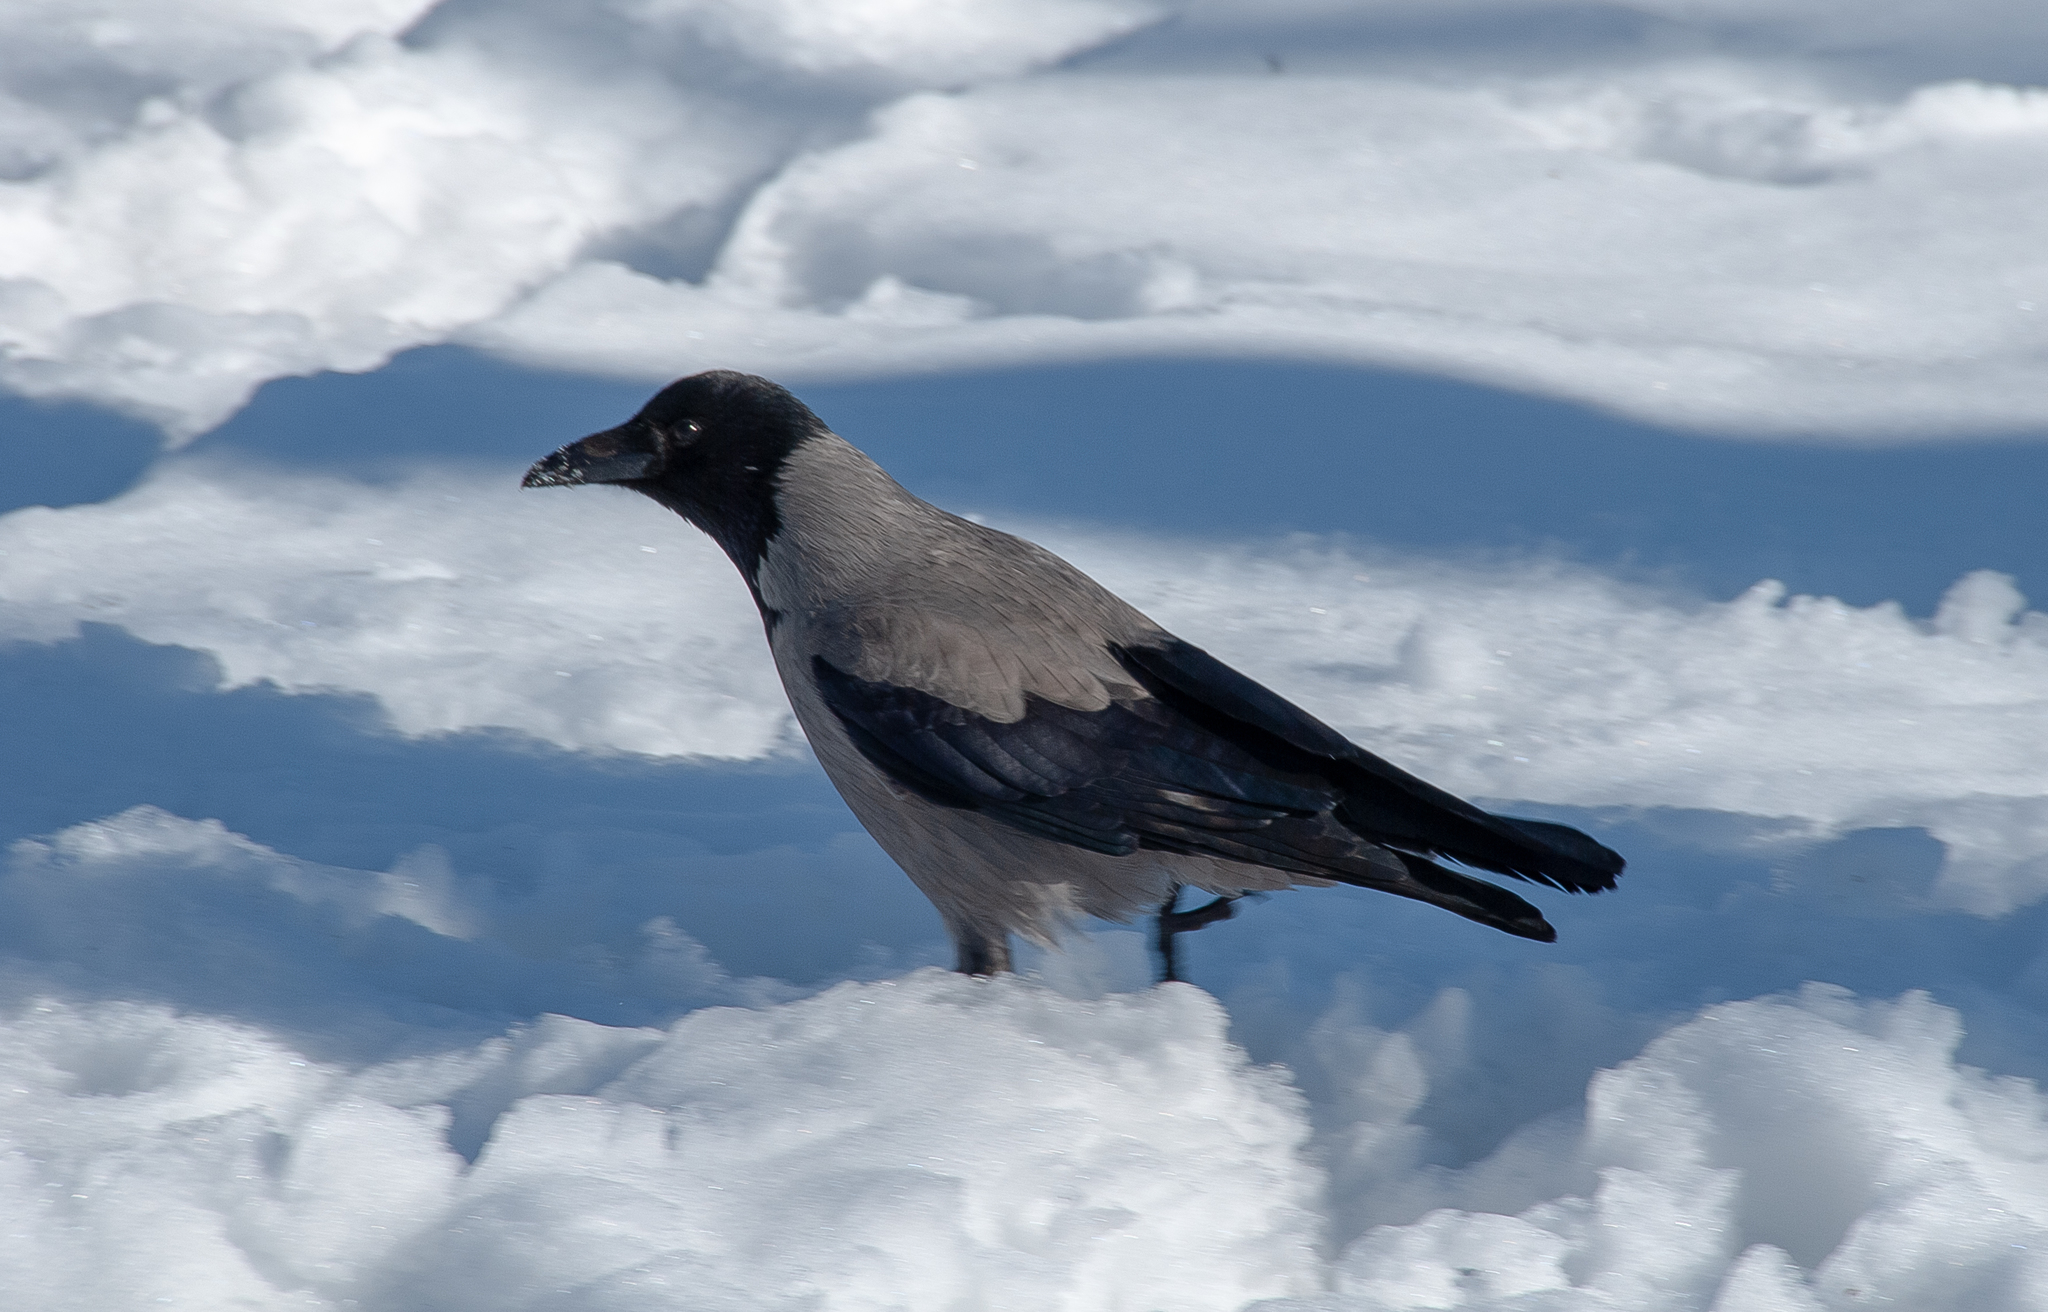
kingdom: Animalia
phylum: Chordata
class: Aves
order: Passeriformes
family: Corvidae
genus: Corvus
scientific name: Corvus cornix
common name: Hooded crow
